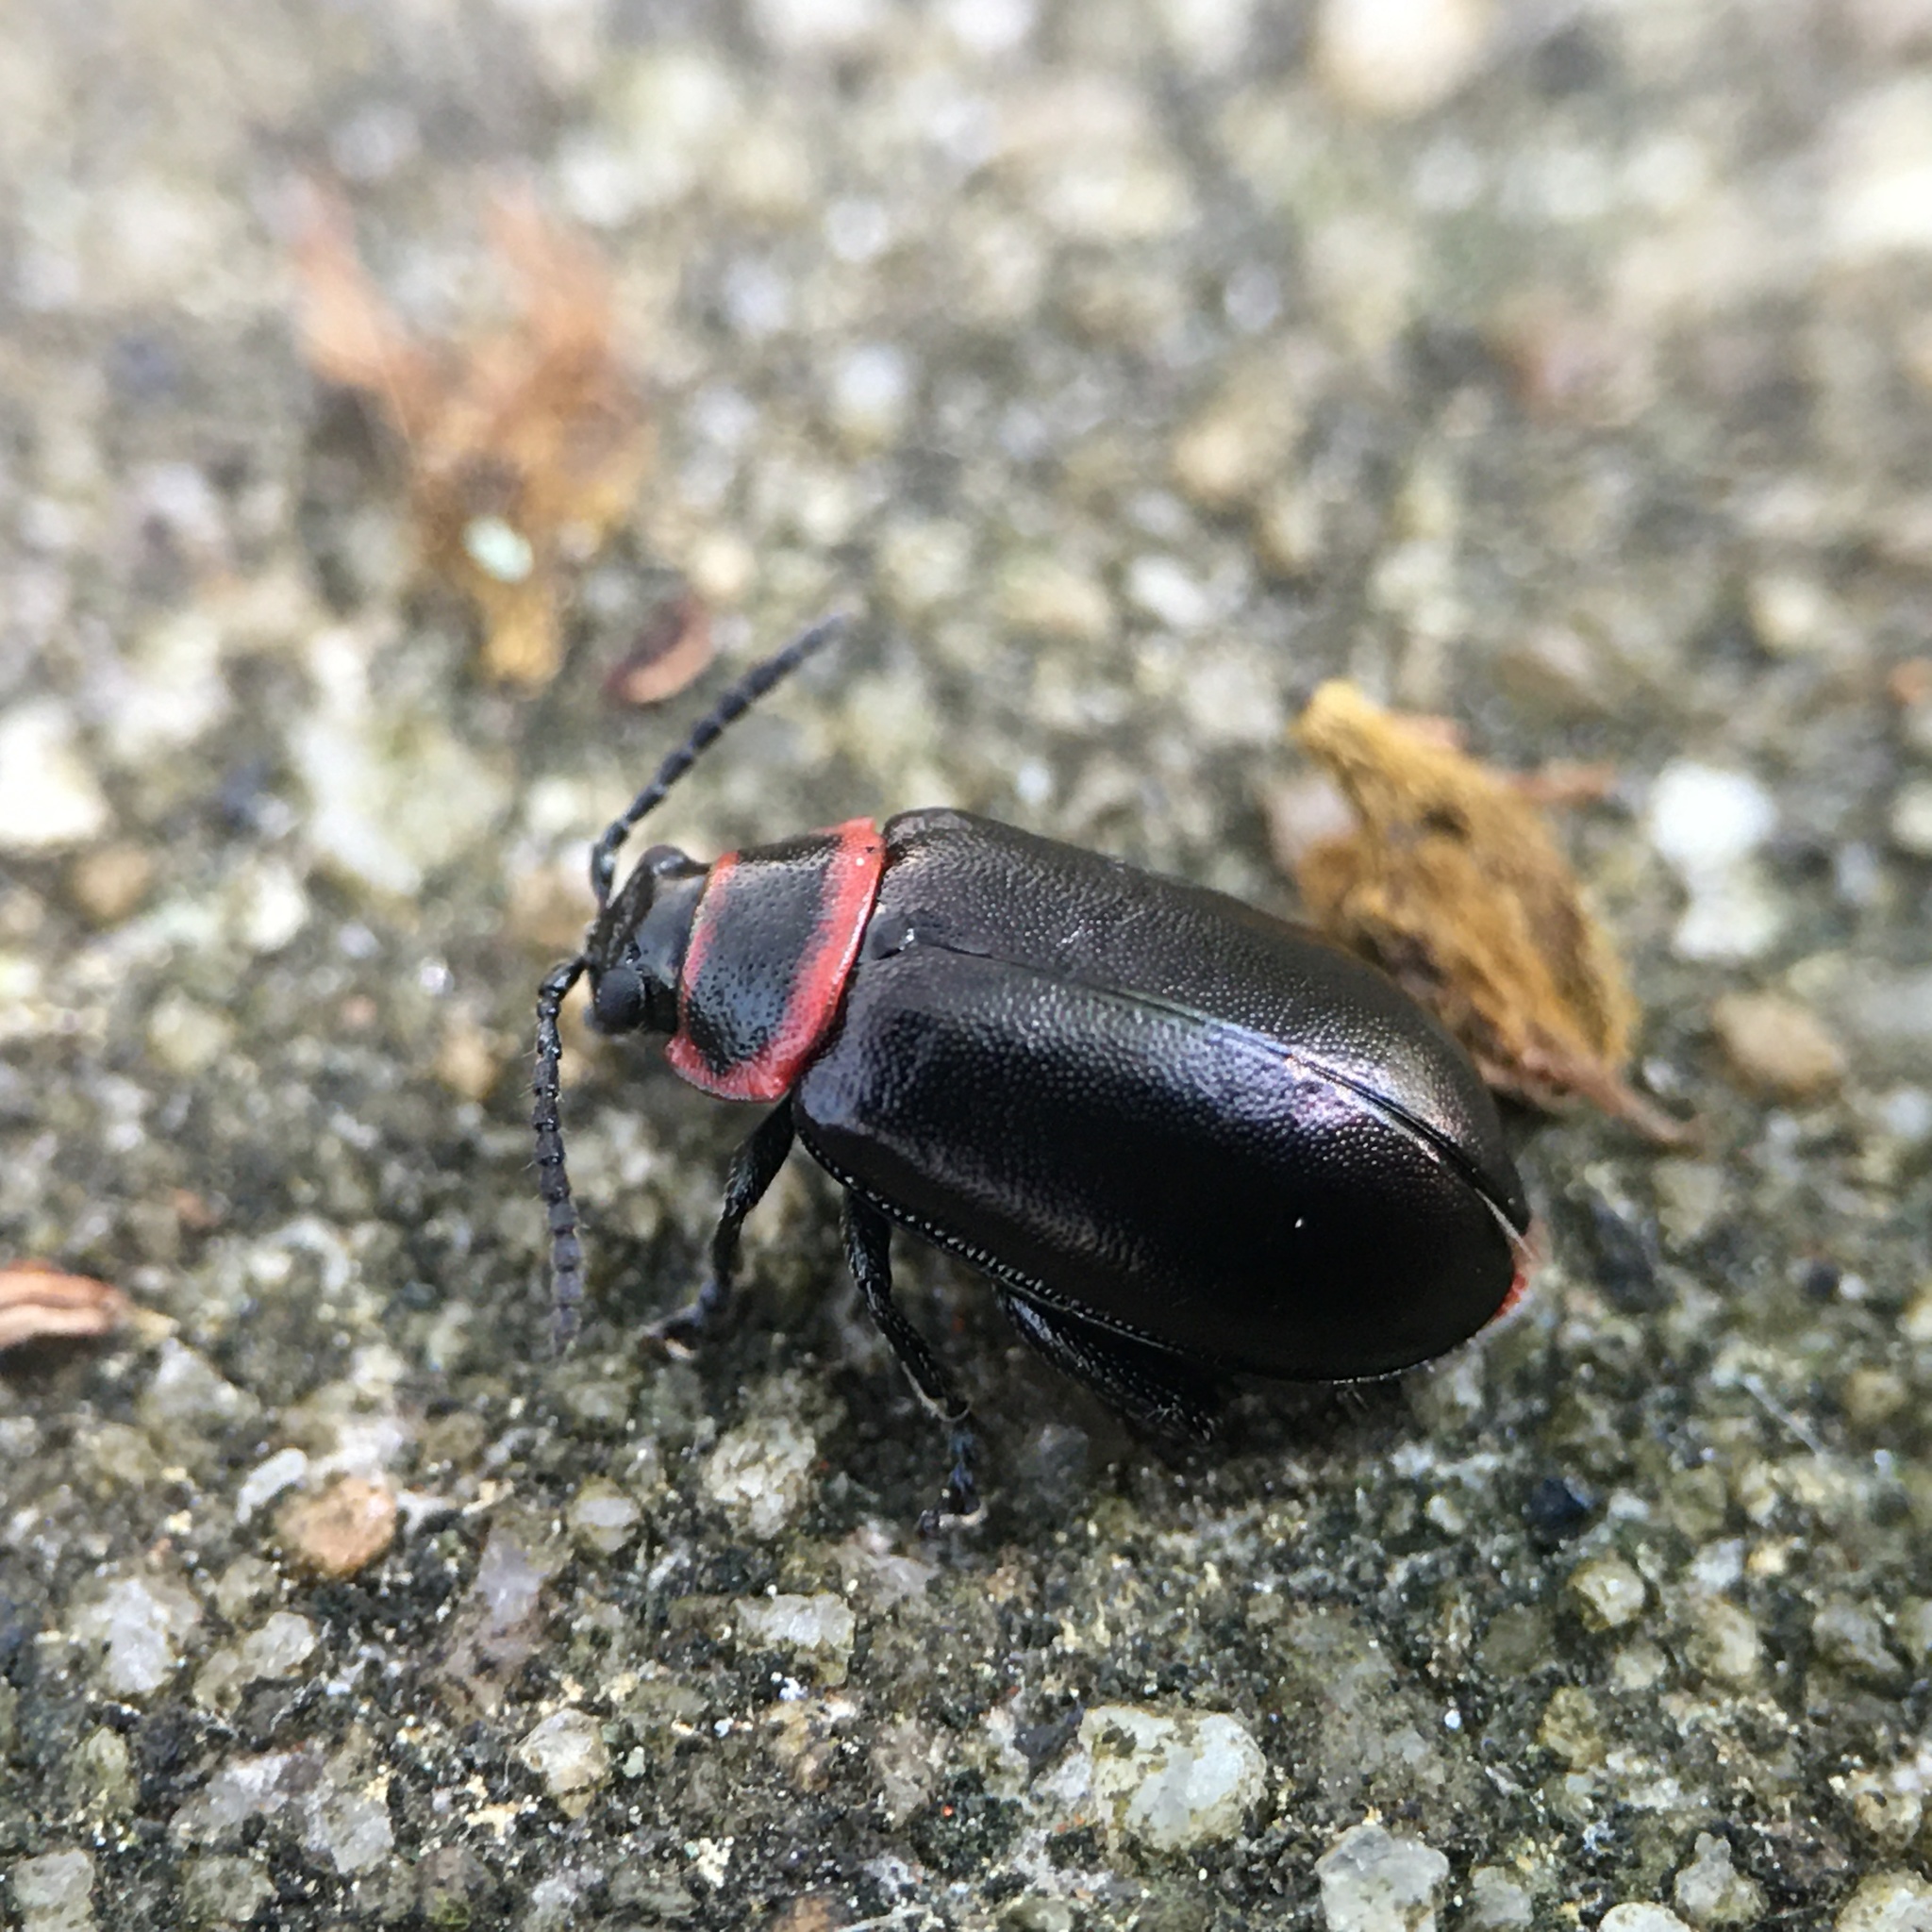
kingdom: Animalia
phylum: Arthropoda
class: Insecta
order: Coleoptera
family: Chrysomelidae
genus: Kuschelina
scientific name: Kuschelina vians
